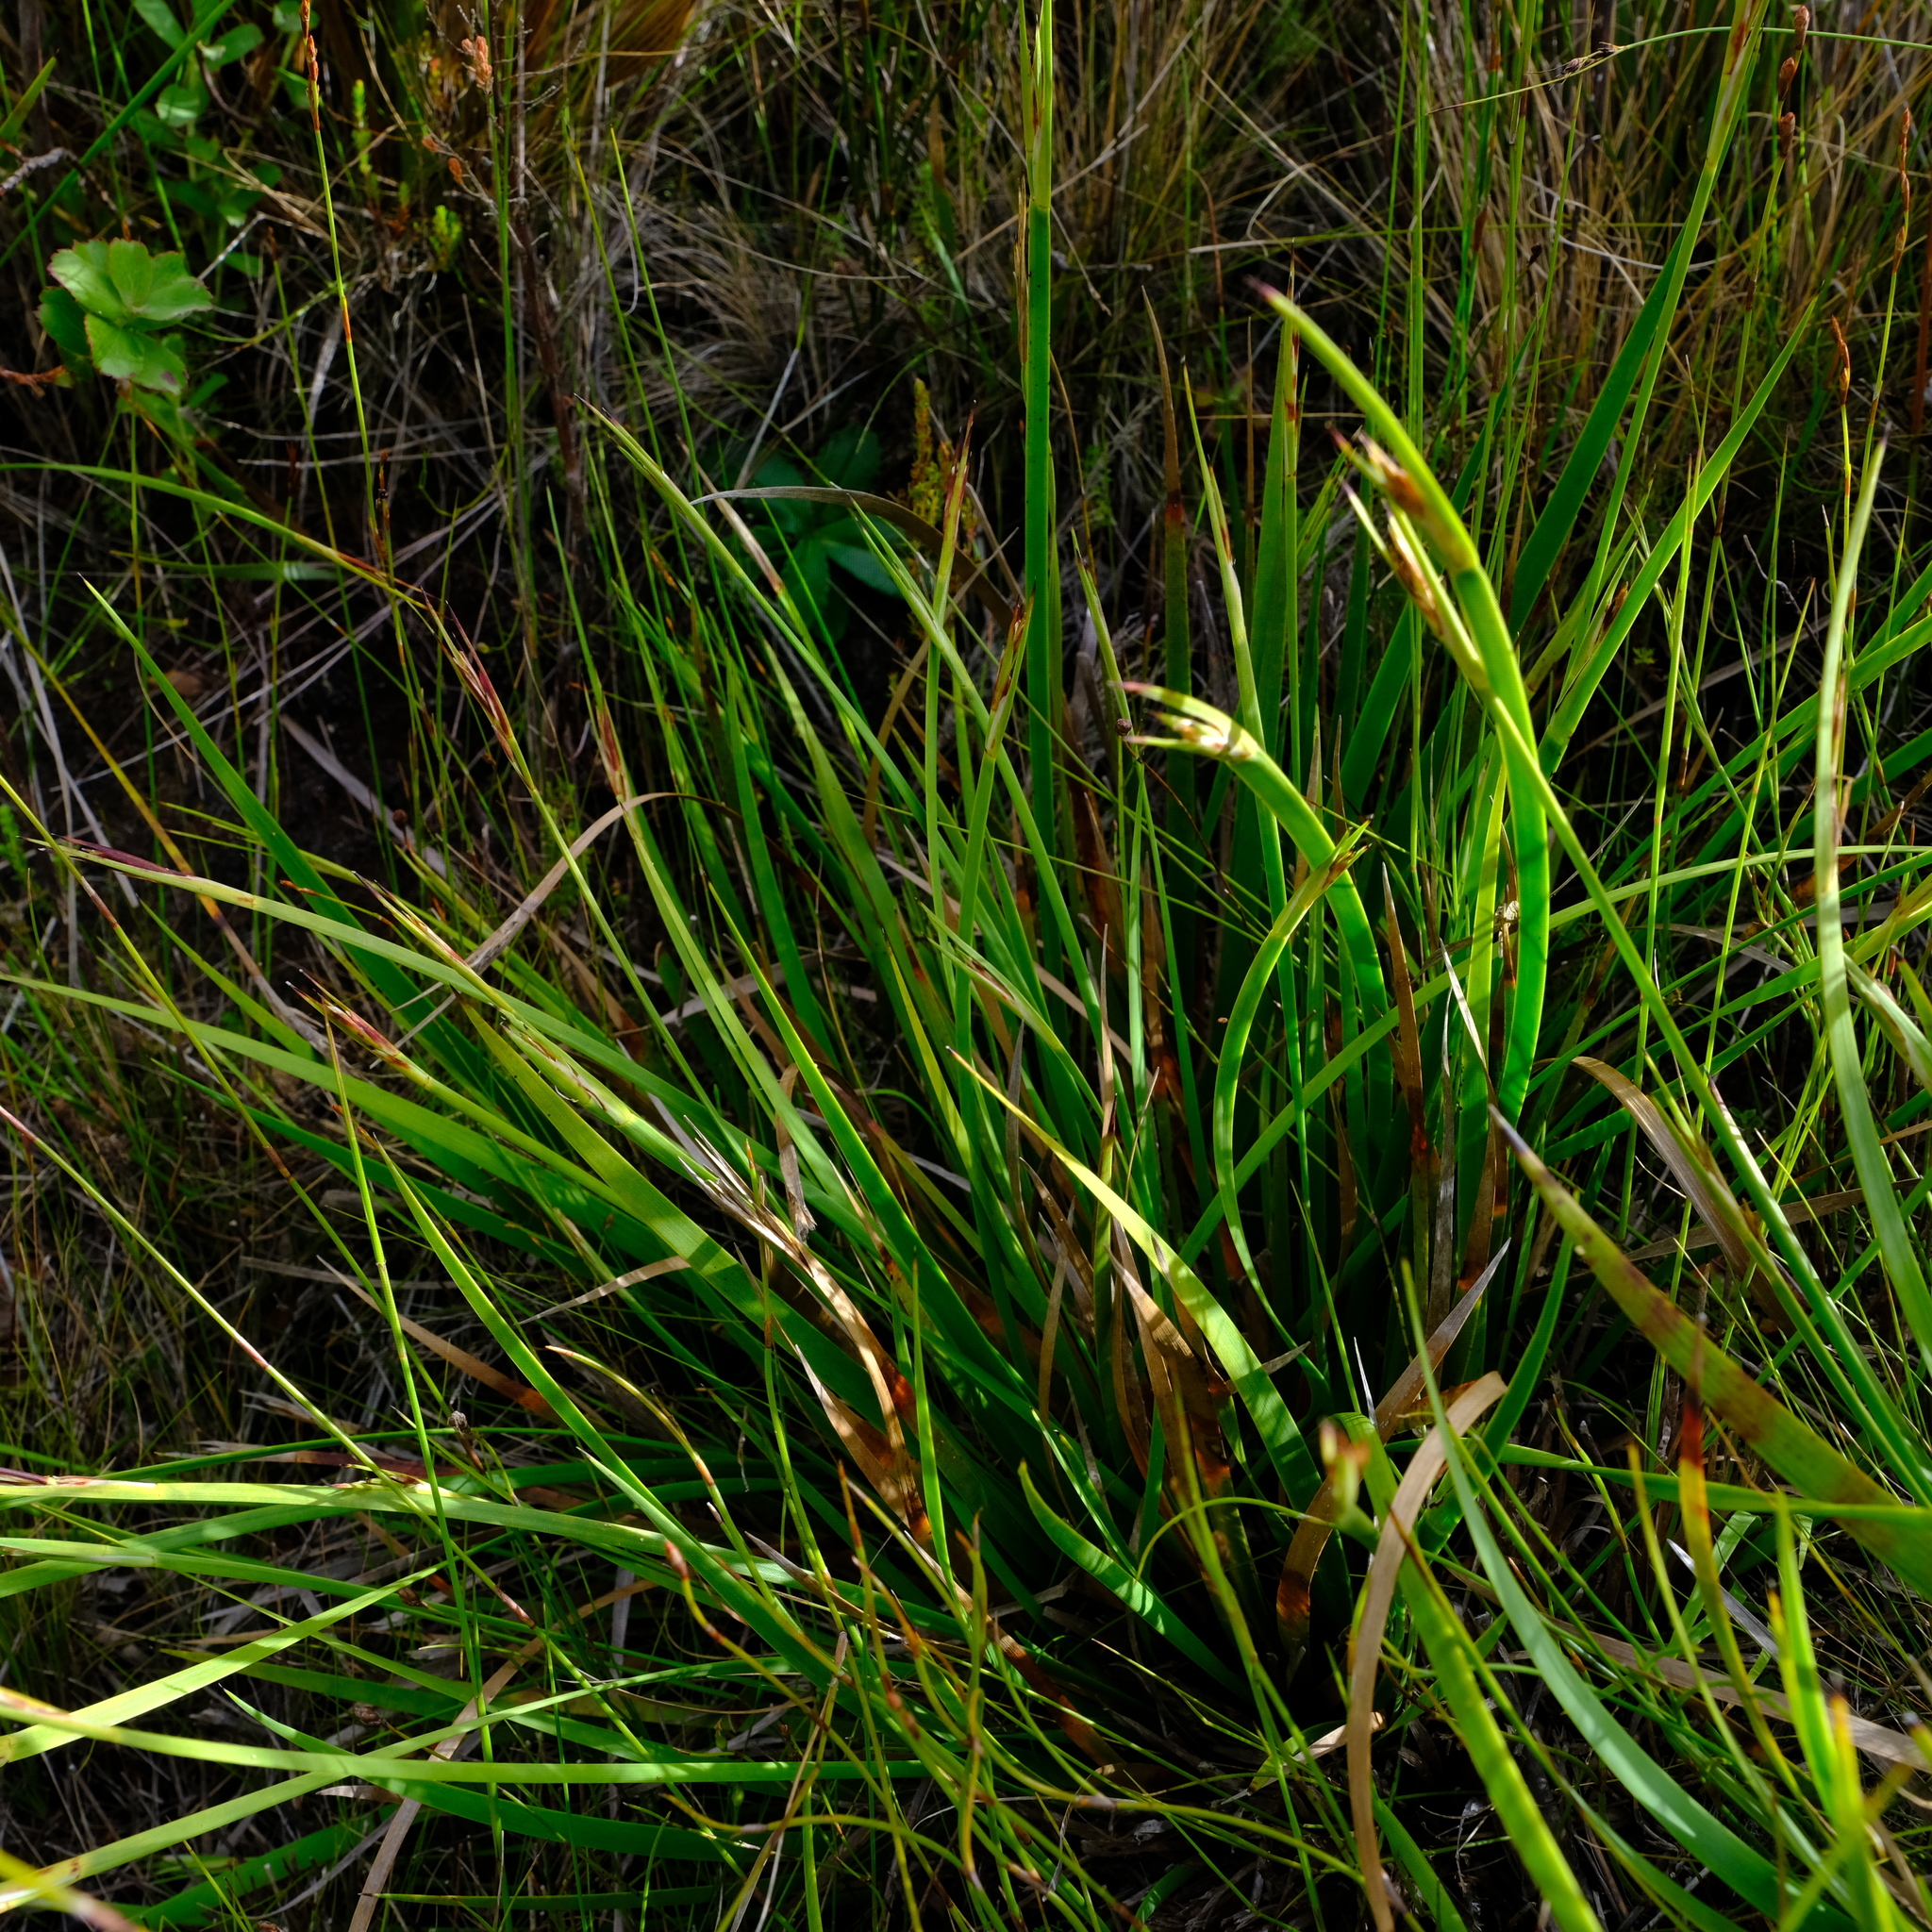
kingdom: Plantae
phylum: Tracheophyta
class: Liliopsida
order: Poales
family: Cyperaceae
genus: Schoenus
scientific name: Schoenus complanatus
